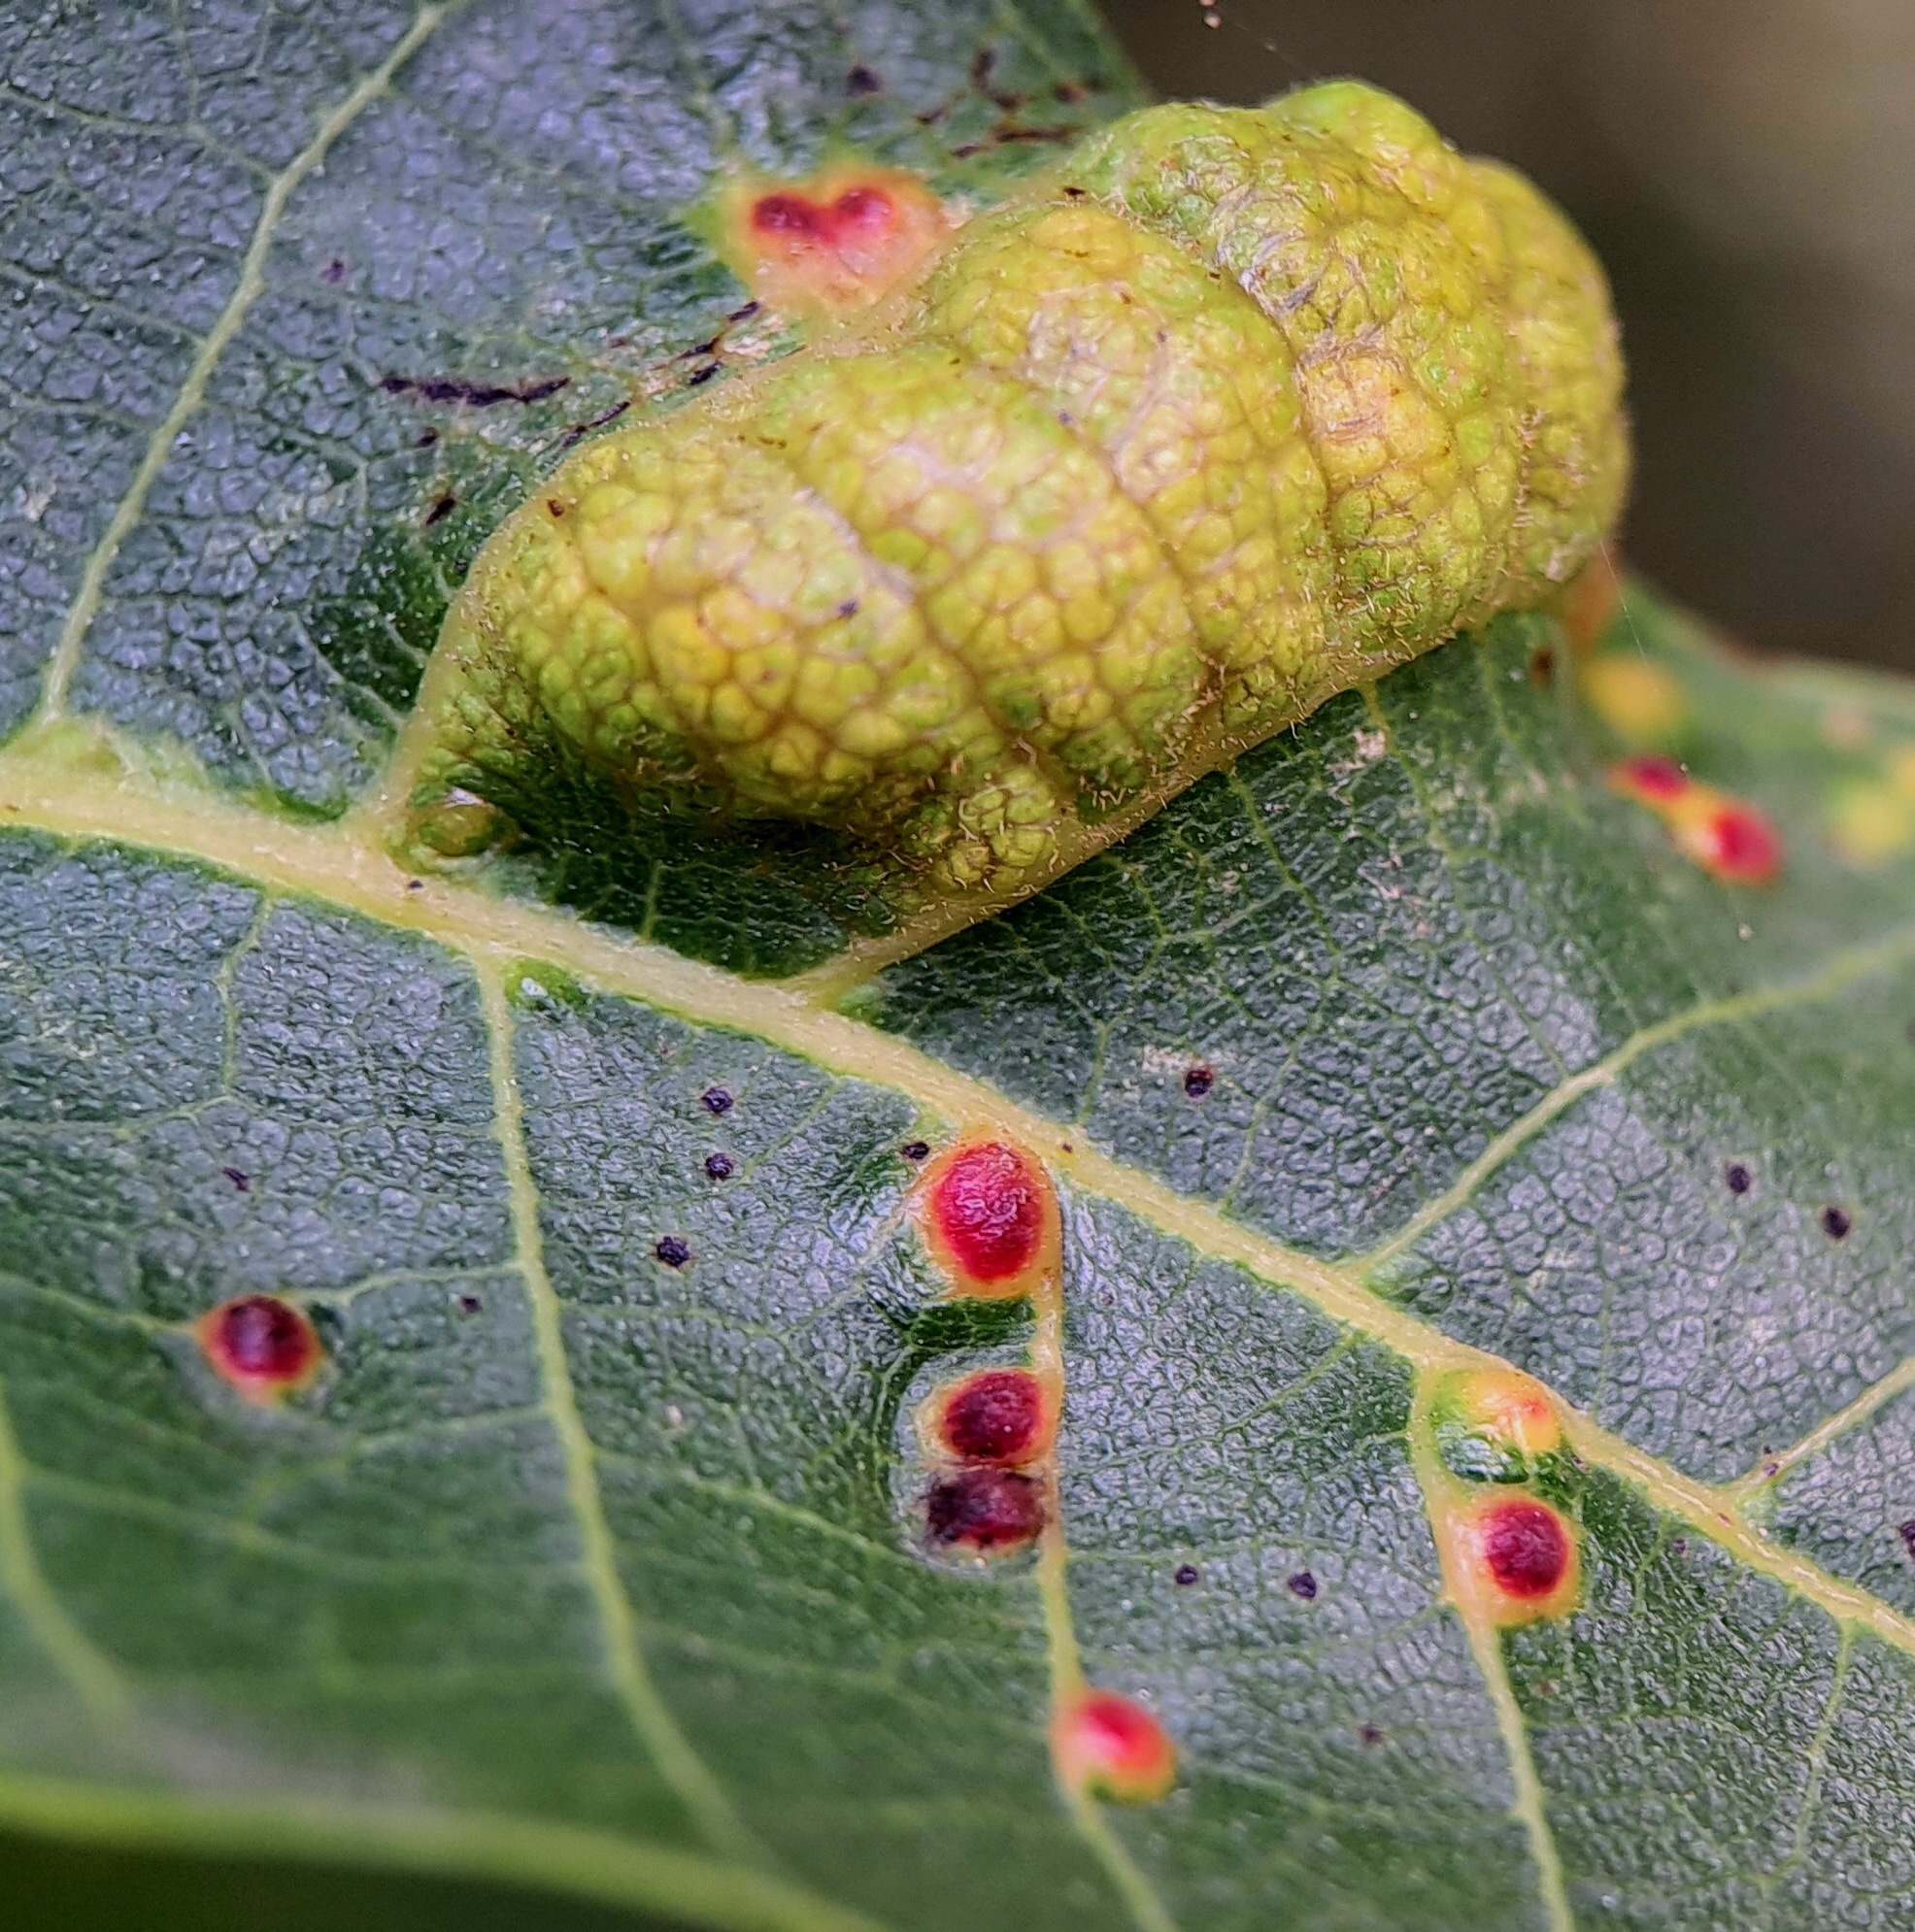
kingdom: Animalia
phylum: Arthropoda
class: Arachnida
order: Trombidiformes
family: Eriophyidae
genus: Aceria
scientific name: Aceria erinea
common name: Persian walnut erineum mite
